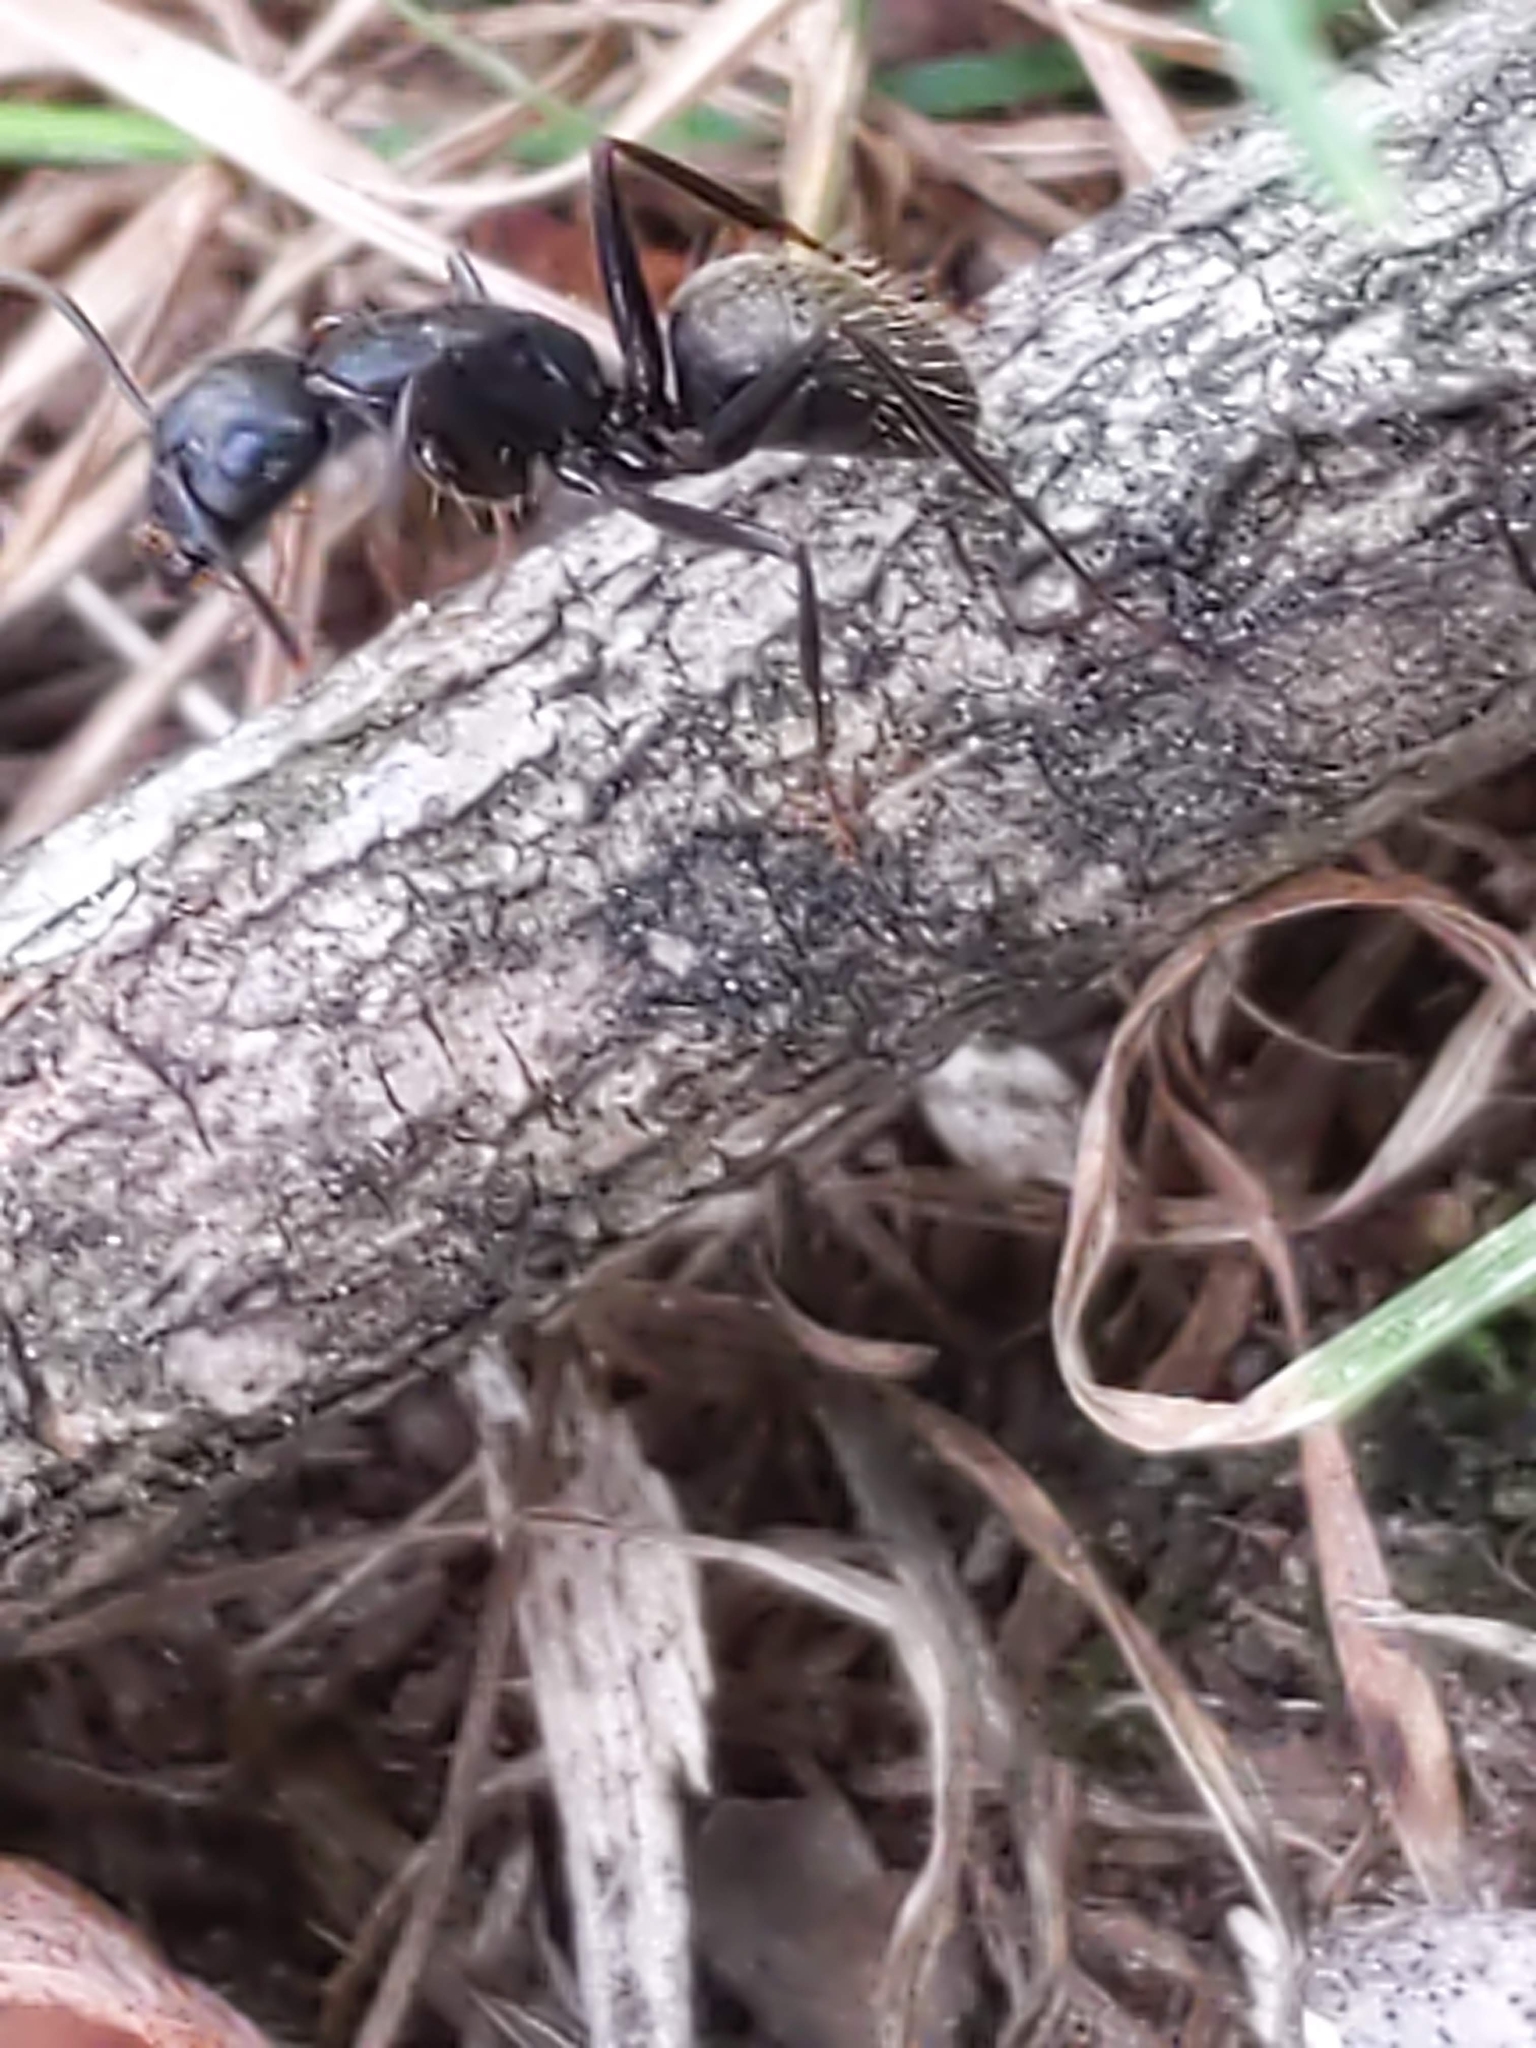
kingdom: Animalia
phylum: Arthropoda
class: Insecta
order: Hymenoptera
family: Formicidae
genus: Camponotus
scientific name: Camponotus pennsylvanicus
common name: Black carpenter ant
